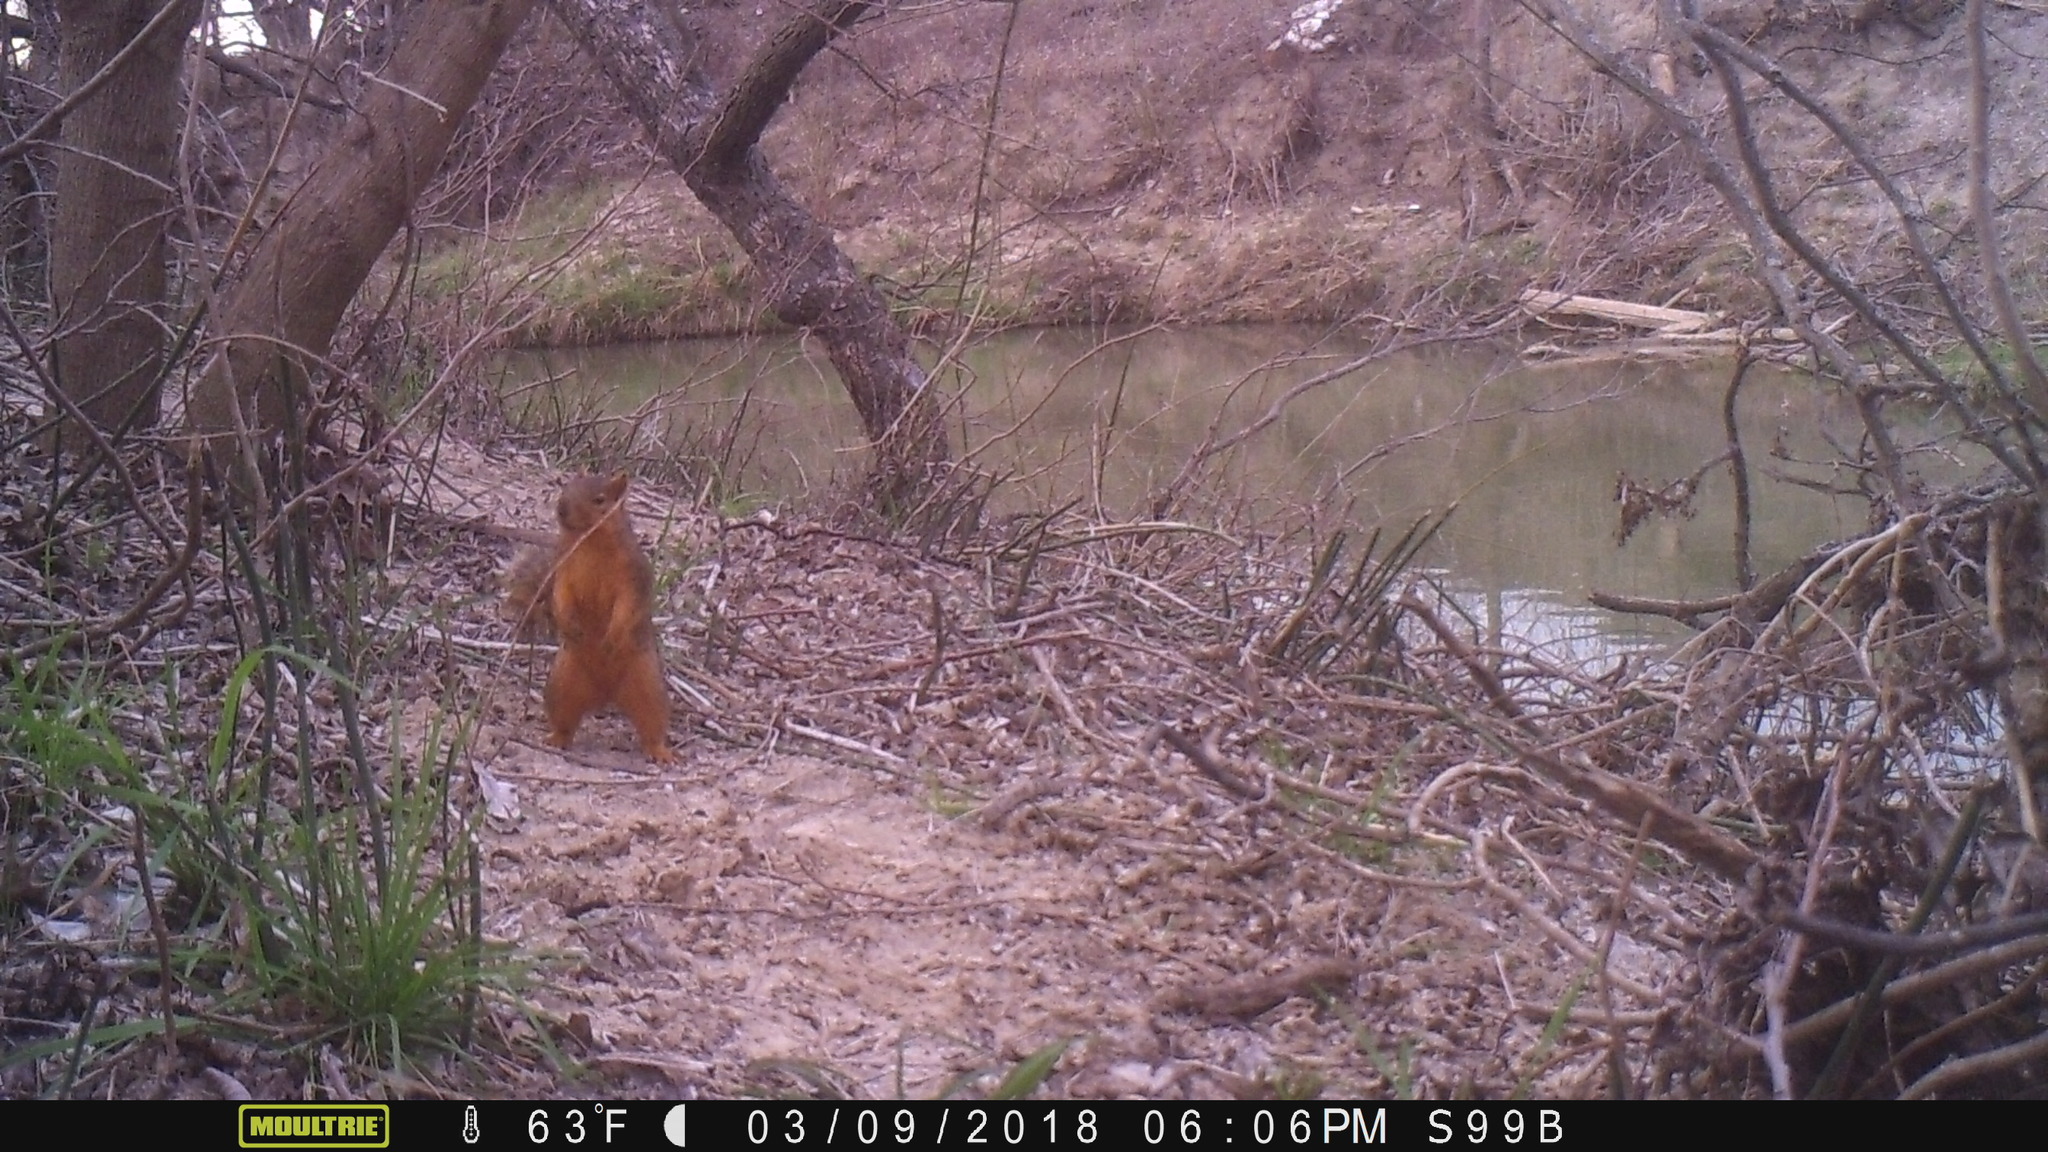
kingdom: Animalia
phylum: Chordata
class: Mammalia
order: Rodentia
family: Sciuridae
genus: Sciurus
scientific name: Sciurus niger
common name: Fox squirrel
